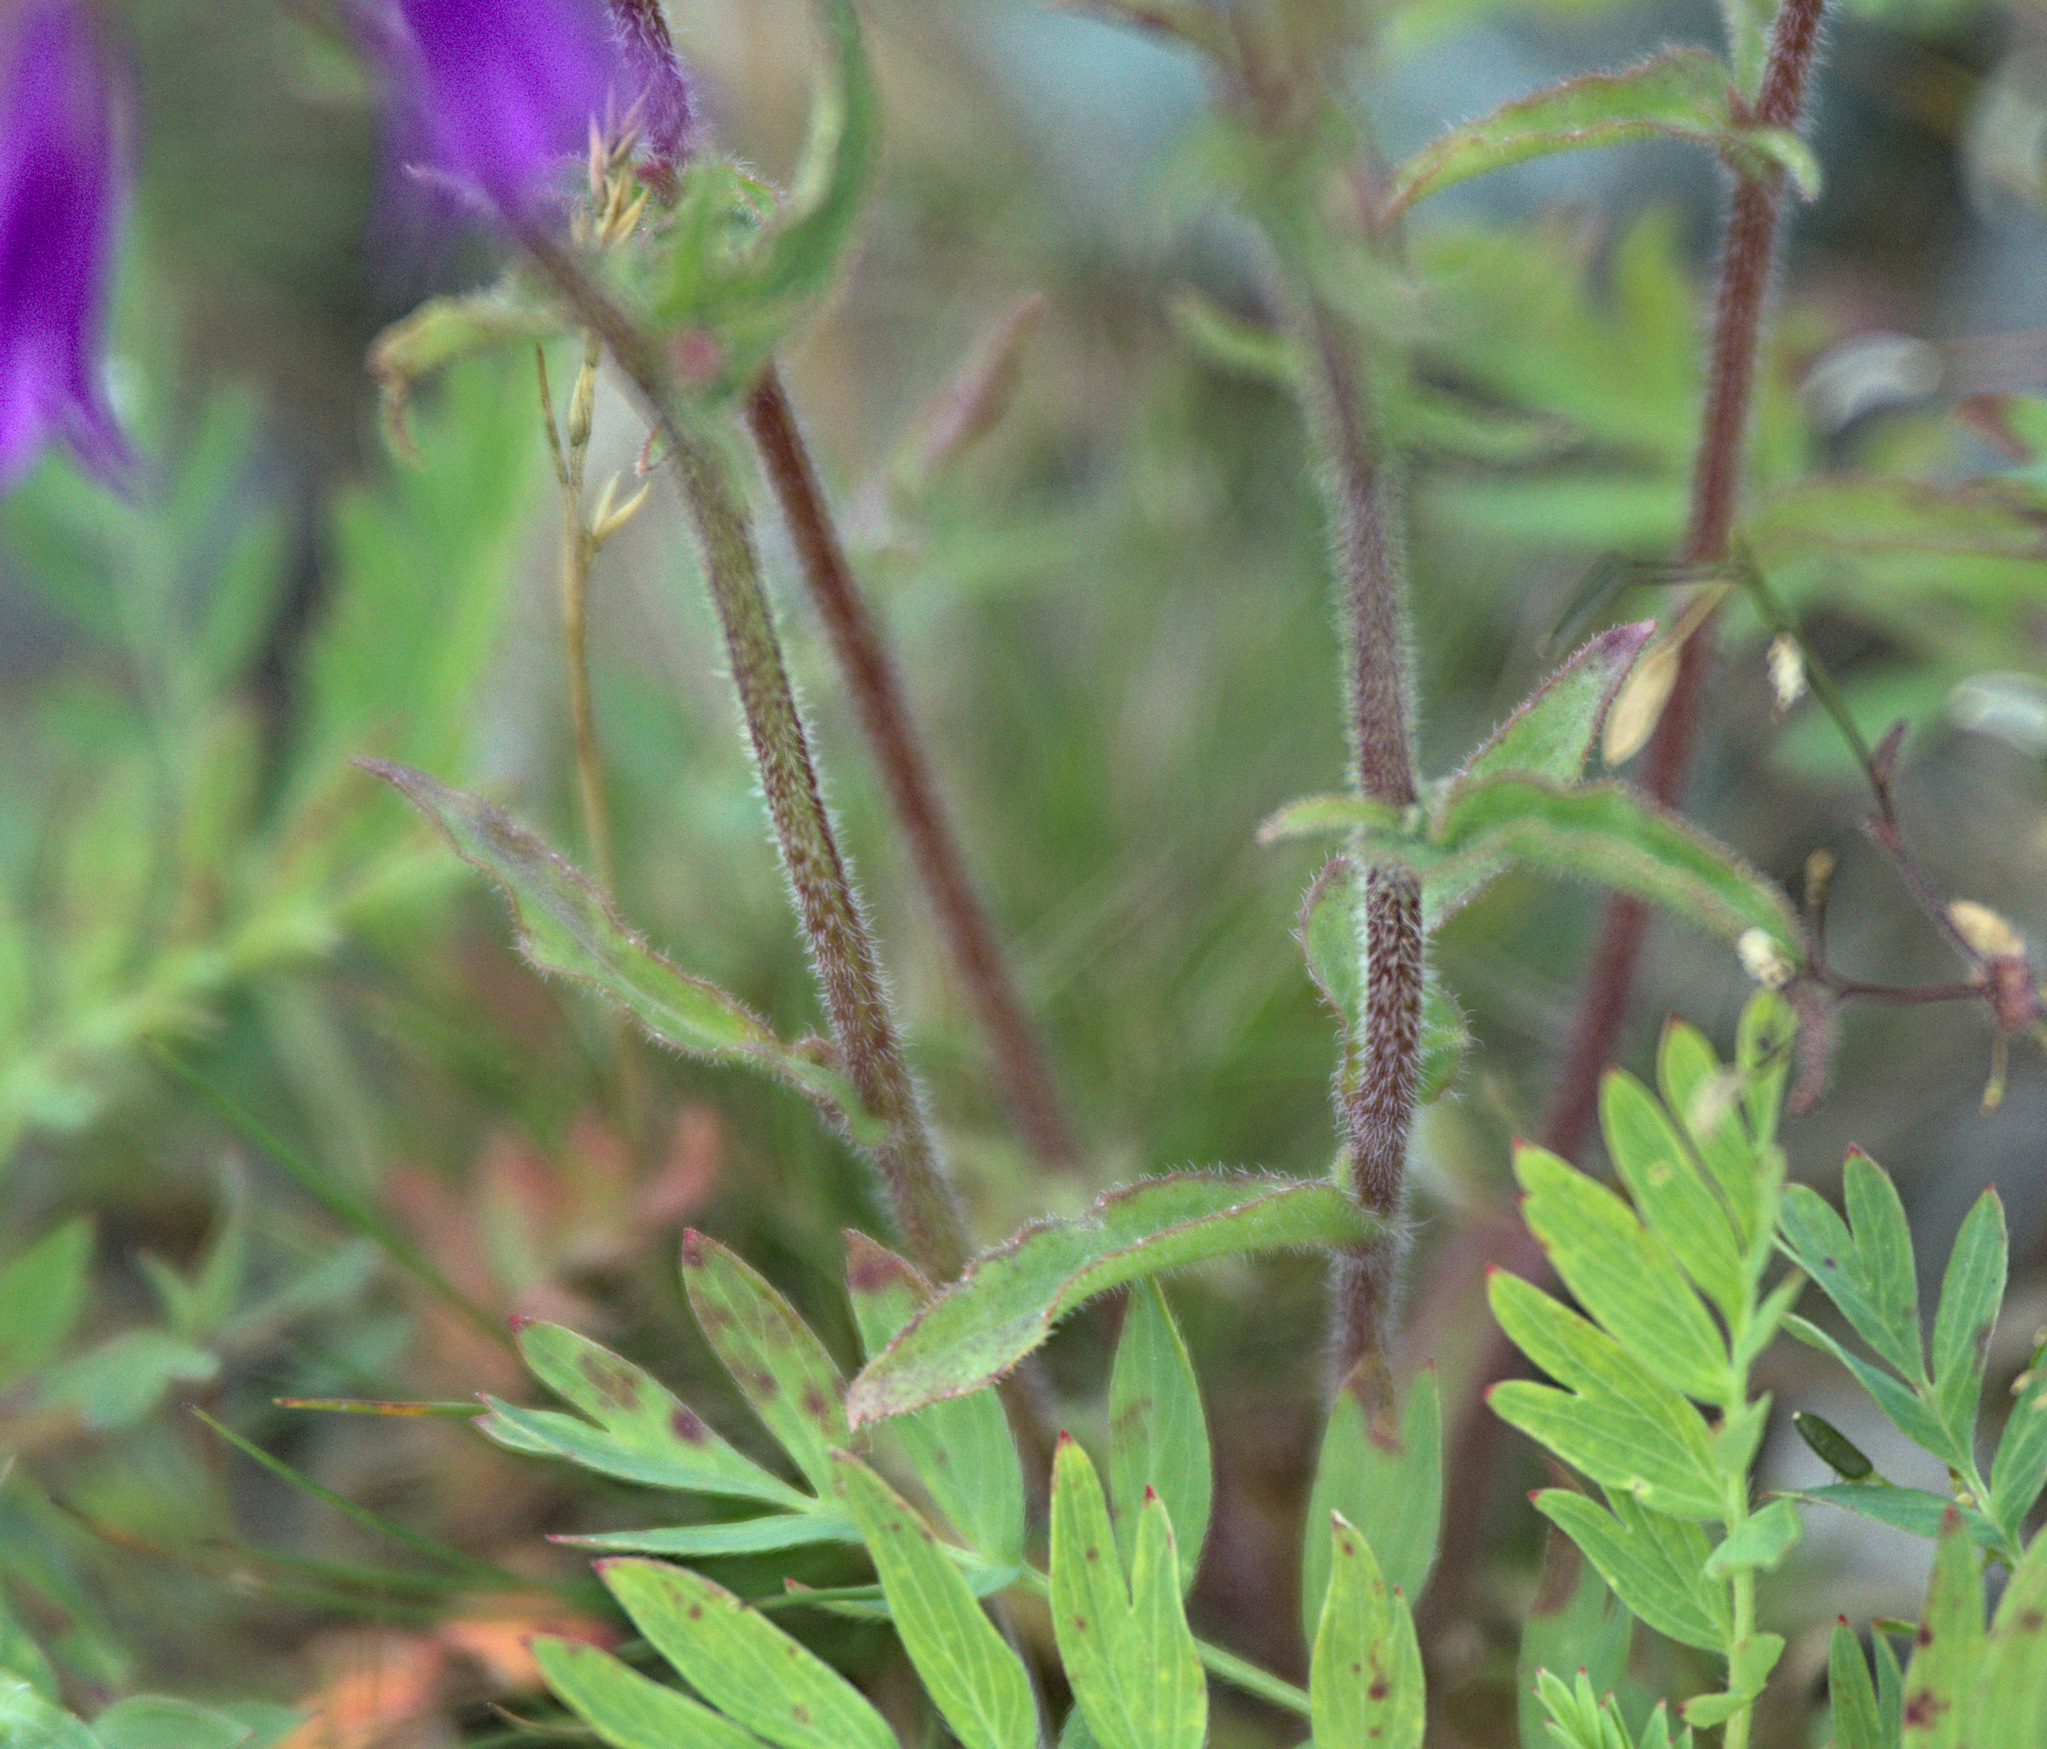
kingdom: Plantae
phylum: Tracheophyta
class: Magnoliopsida
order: Asterales
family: Campanulaceae
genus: Campanula
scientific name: Campanula sibirica
